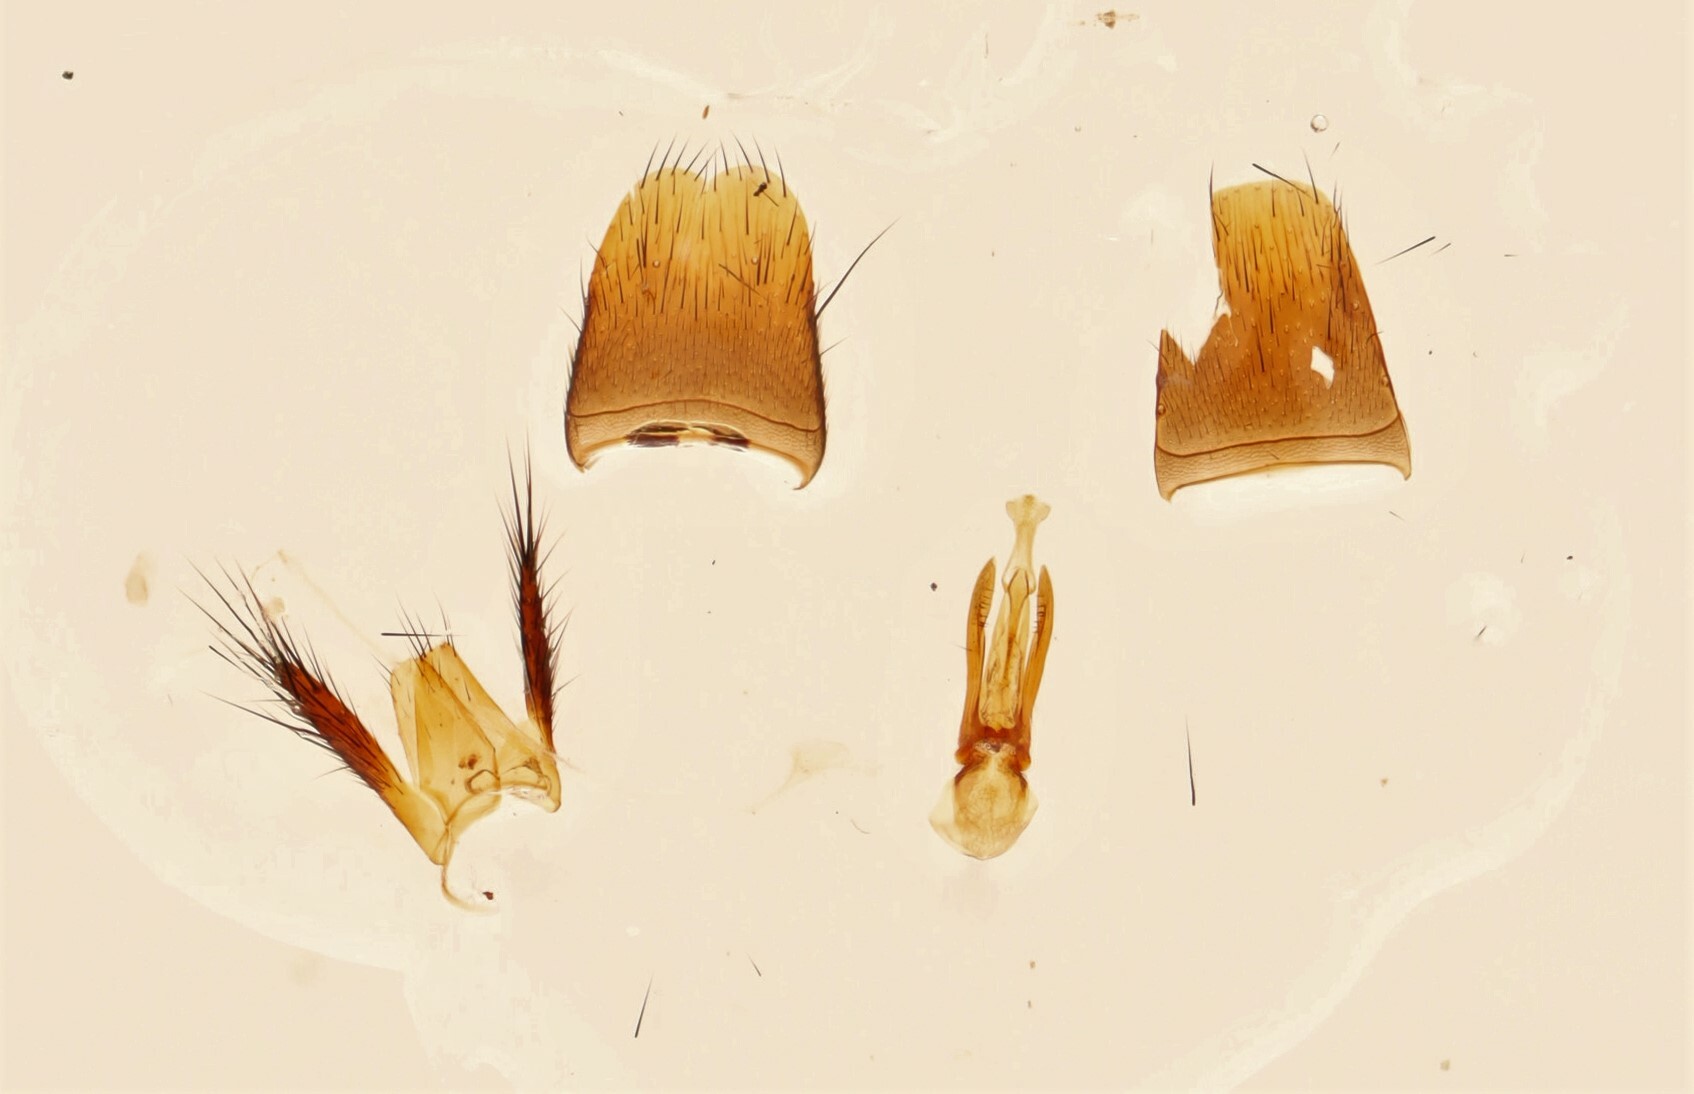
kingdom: Animalia
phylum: Arthropoda
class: Insecta
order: Coleoptera
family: Staphylinidae
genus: Erichsonius
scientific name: Erichsonius brachycephalus
